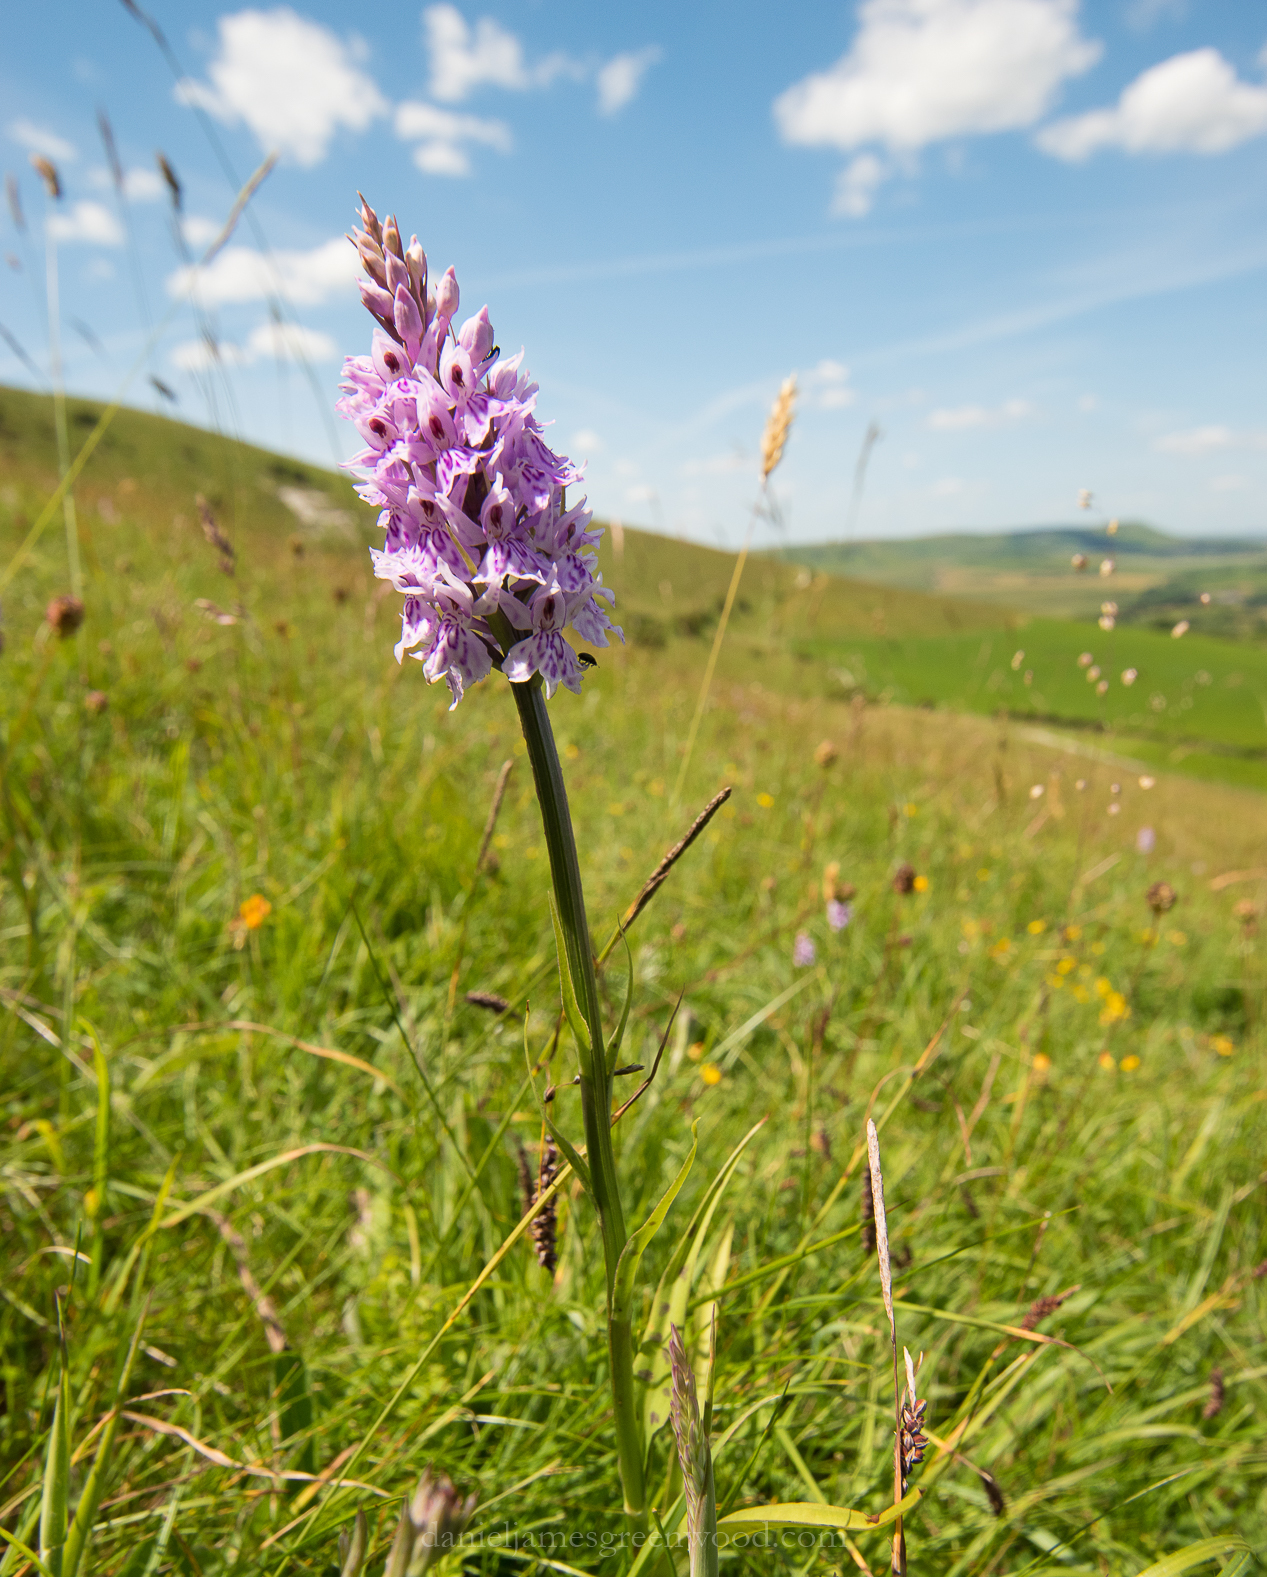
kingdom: Plantae
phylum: Tracheophyta
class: Liliopsida
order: Asparagales
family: Orchidaceae
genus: Dactylorhiza
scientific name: Dactylorhiza maculata
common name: Heath spotted-orchid
